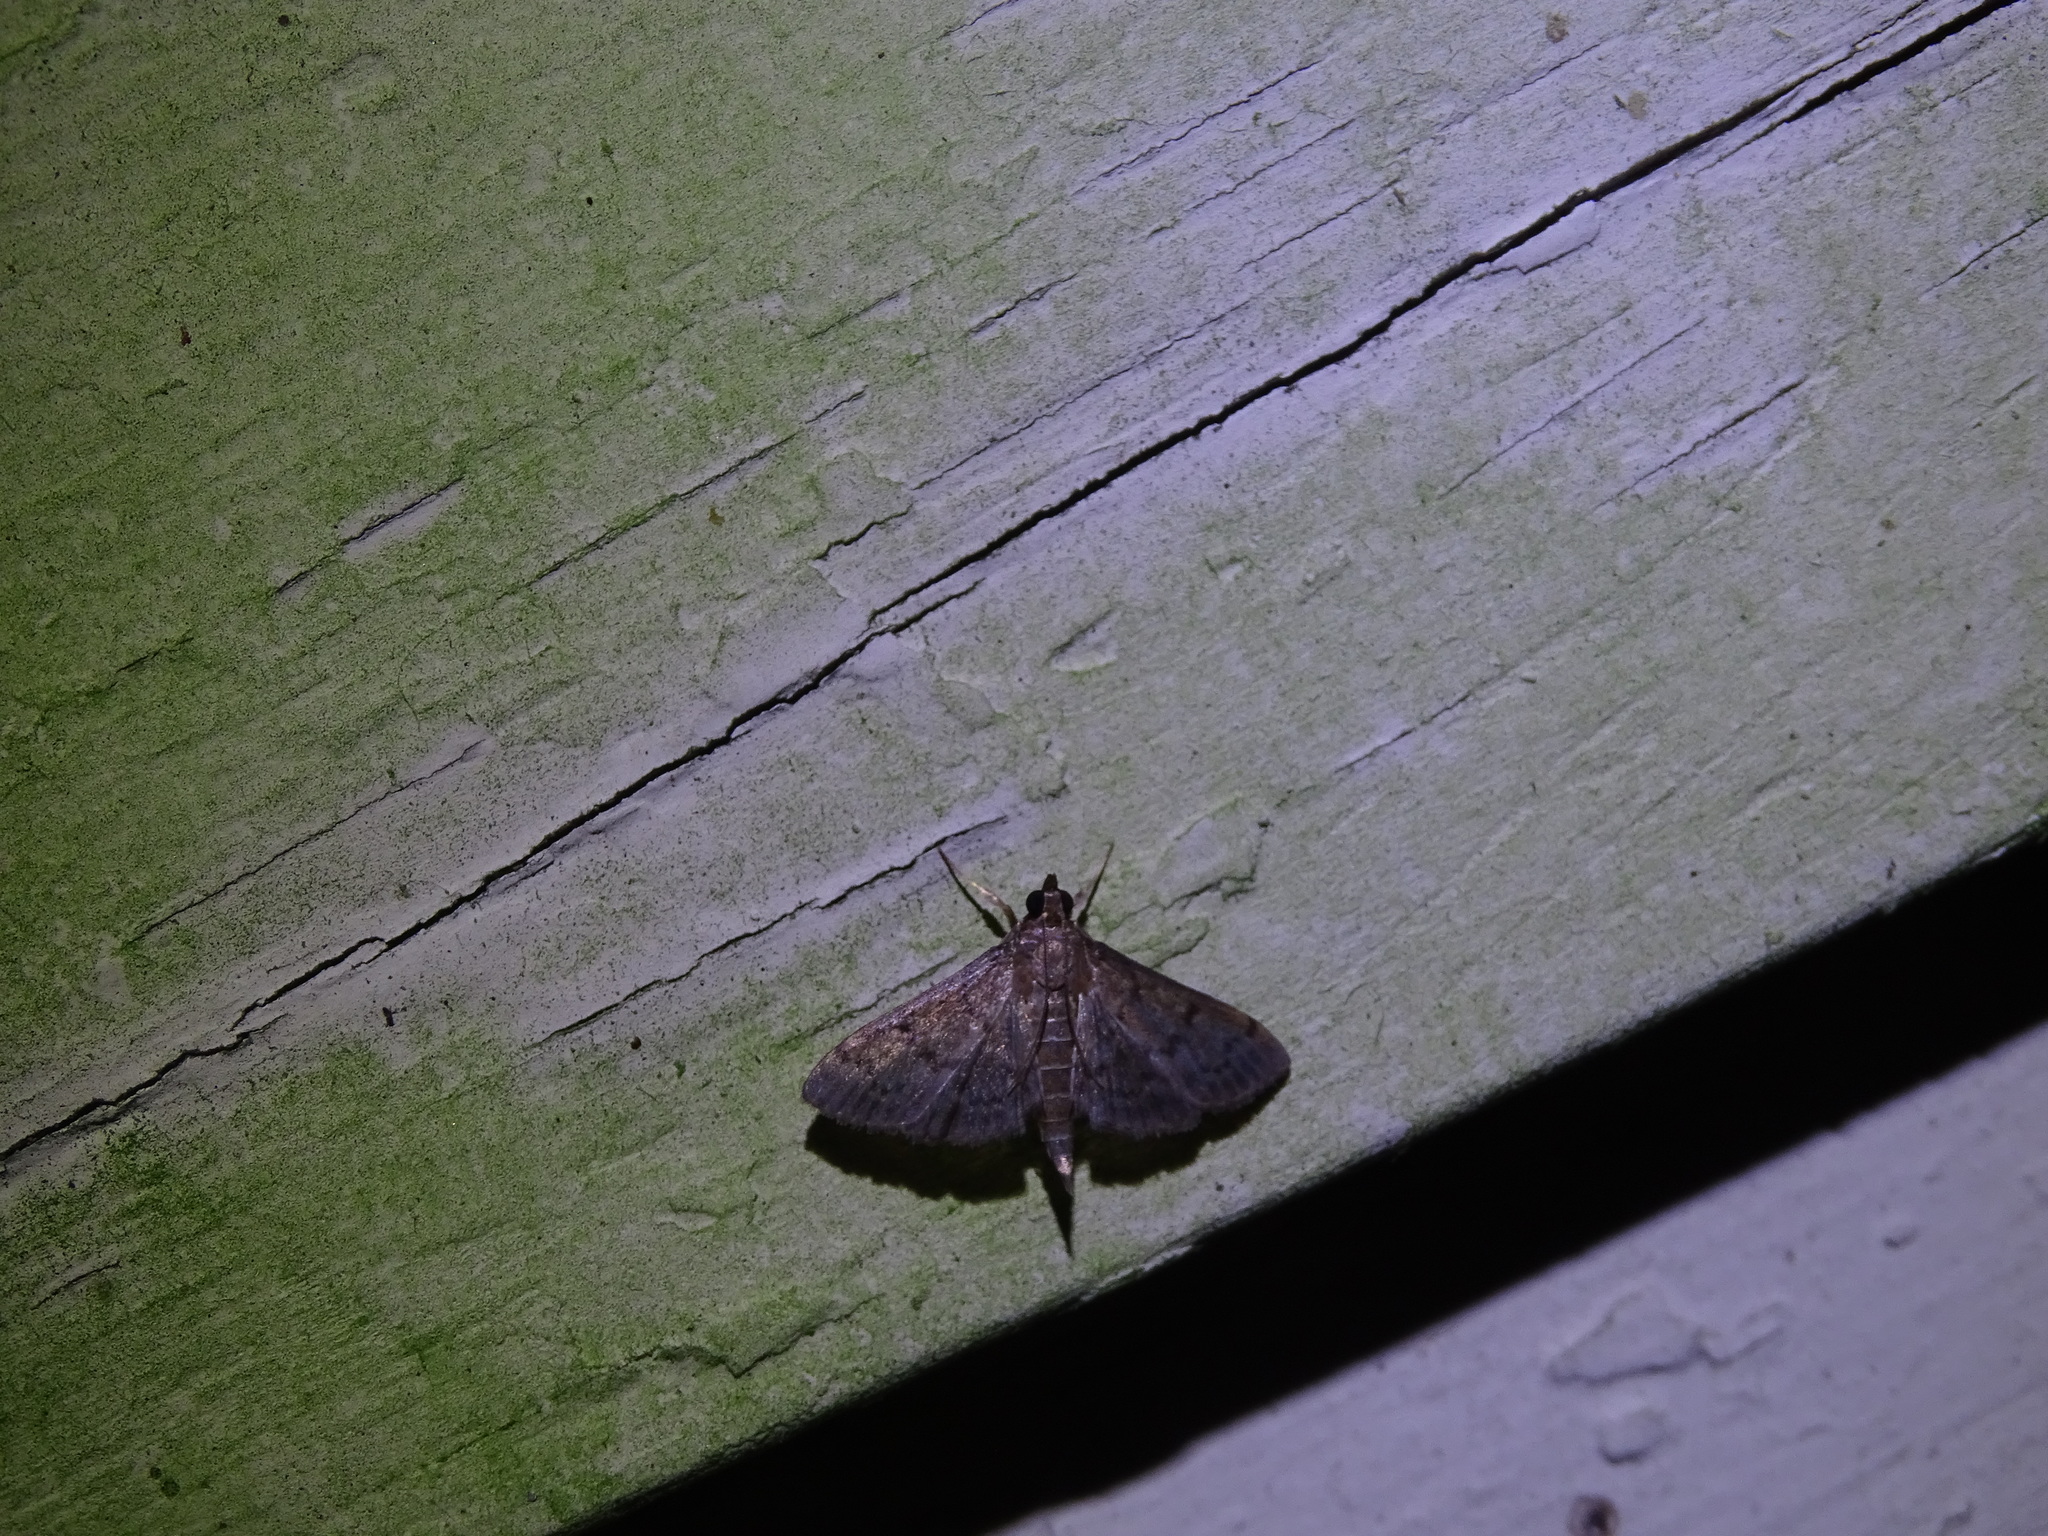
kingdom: Animalia
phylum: Arthropoda
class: Insecta
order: Lepidoptera
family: Crambidae
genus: Herpetogramma
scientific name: Herpetogramma phaeopteralis
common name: Dusky herpetogramma moth
